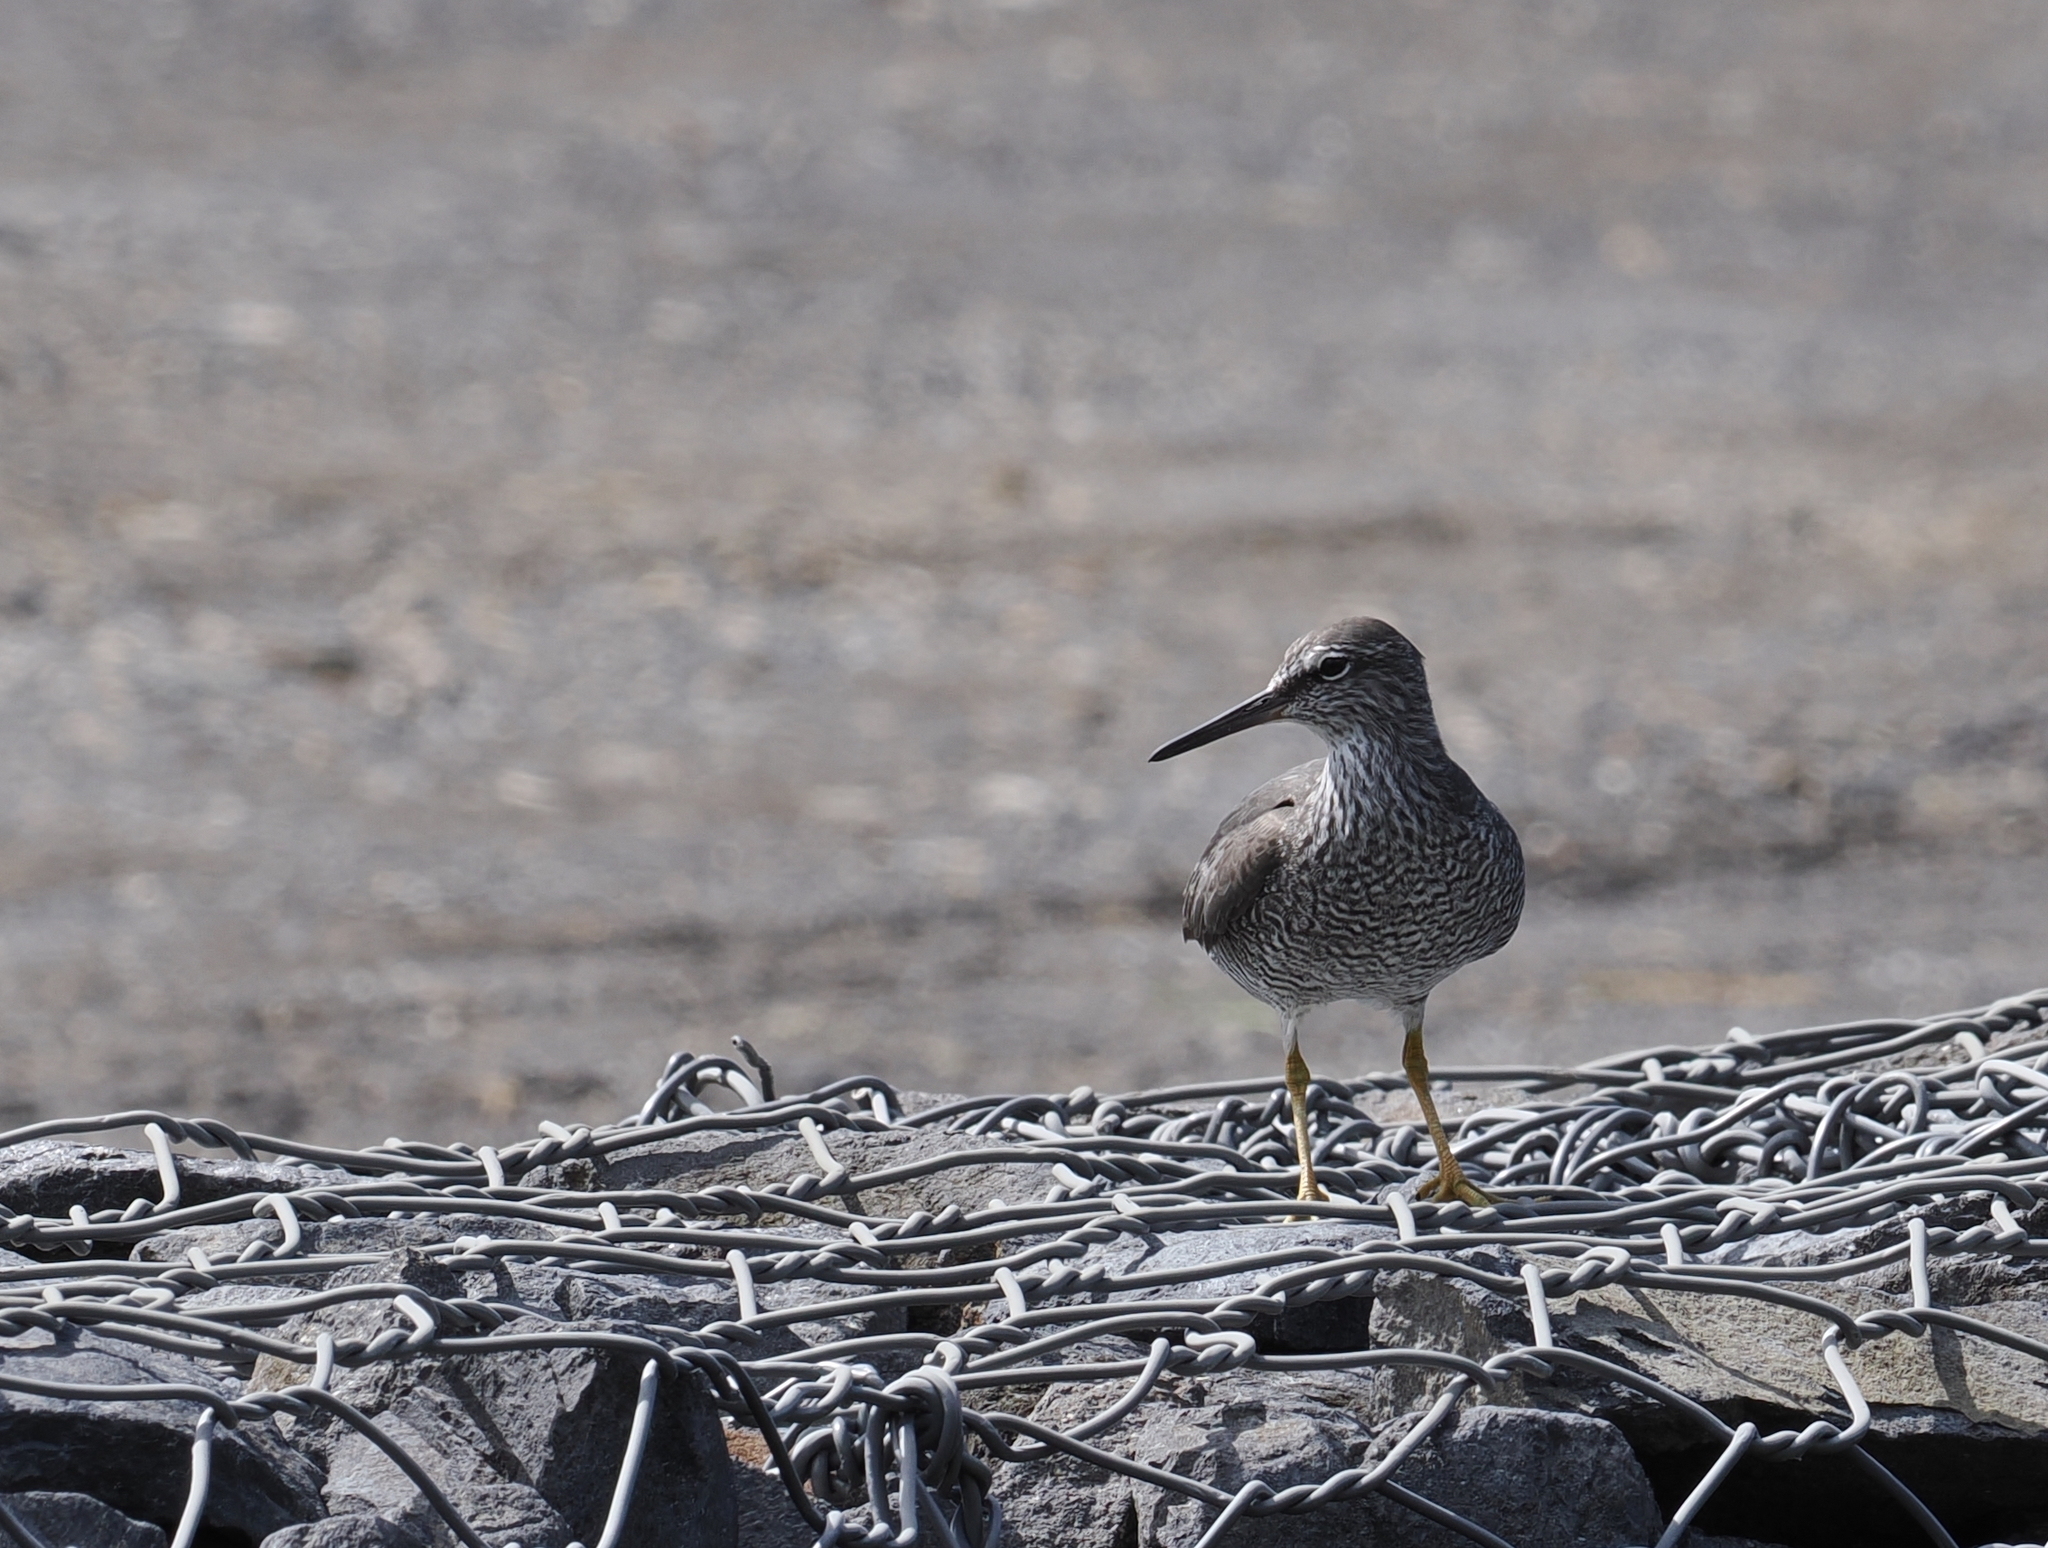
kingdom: Animalia
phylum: Chordata
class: Aves
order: Charadriiformes
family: Scolopacidae
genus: Tringa
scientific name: Tringa incana
